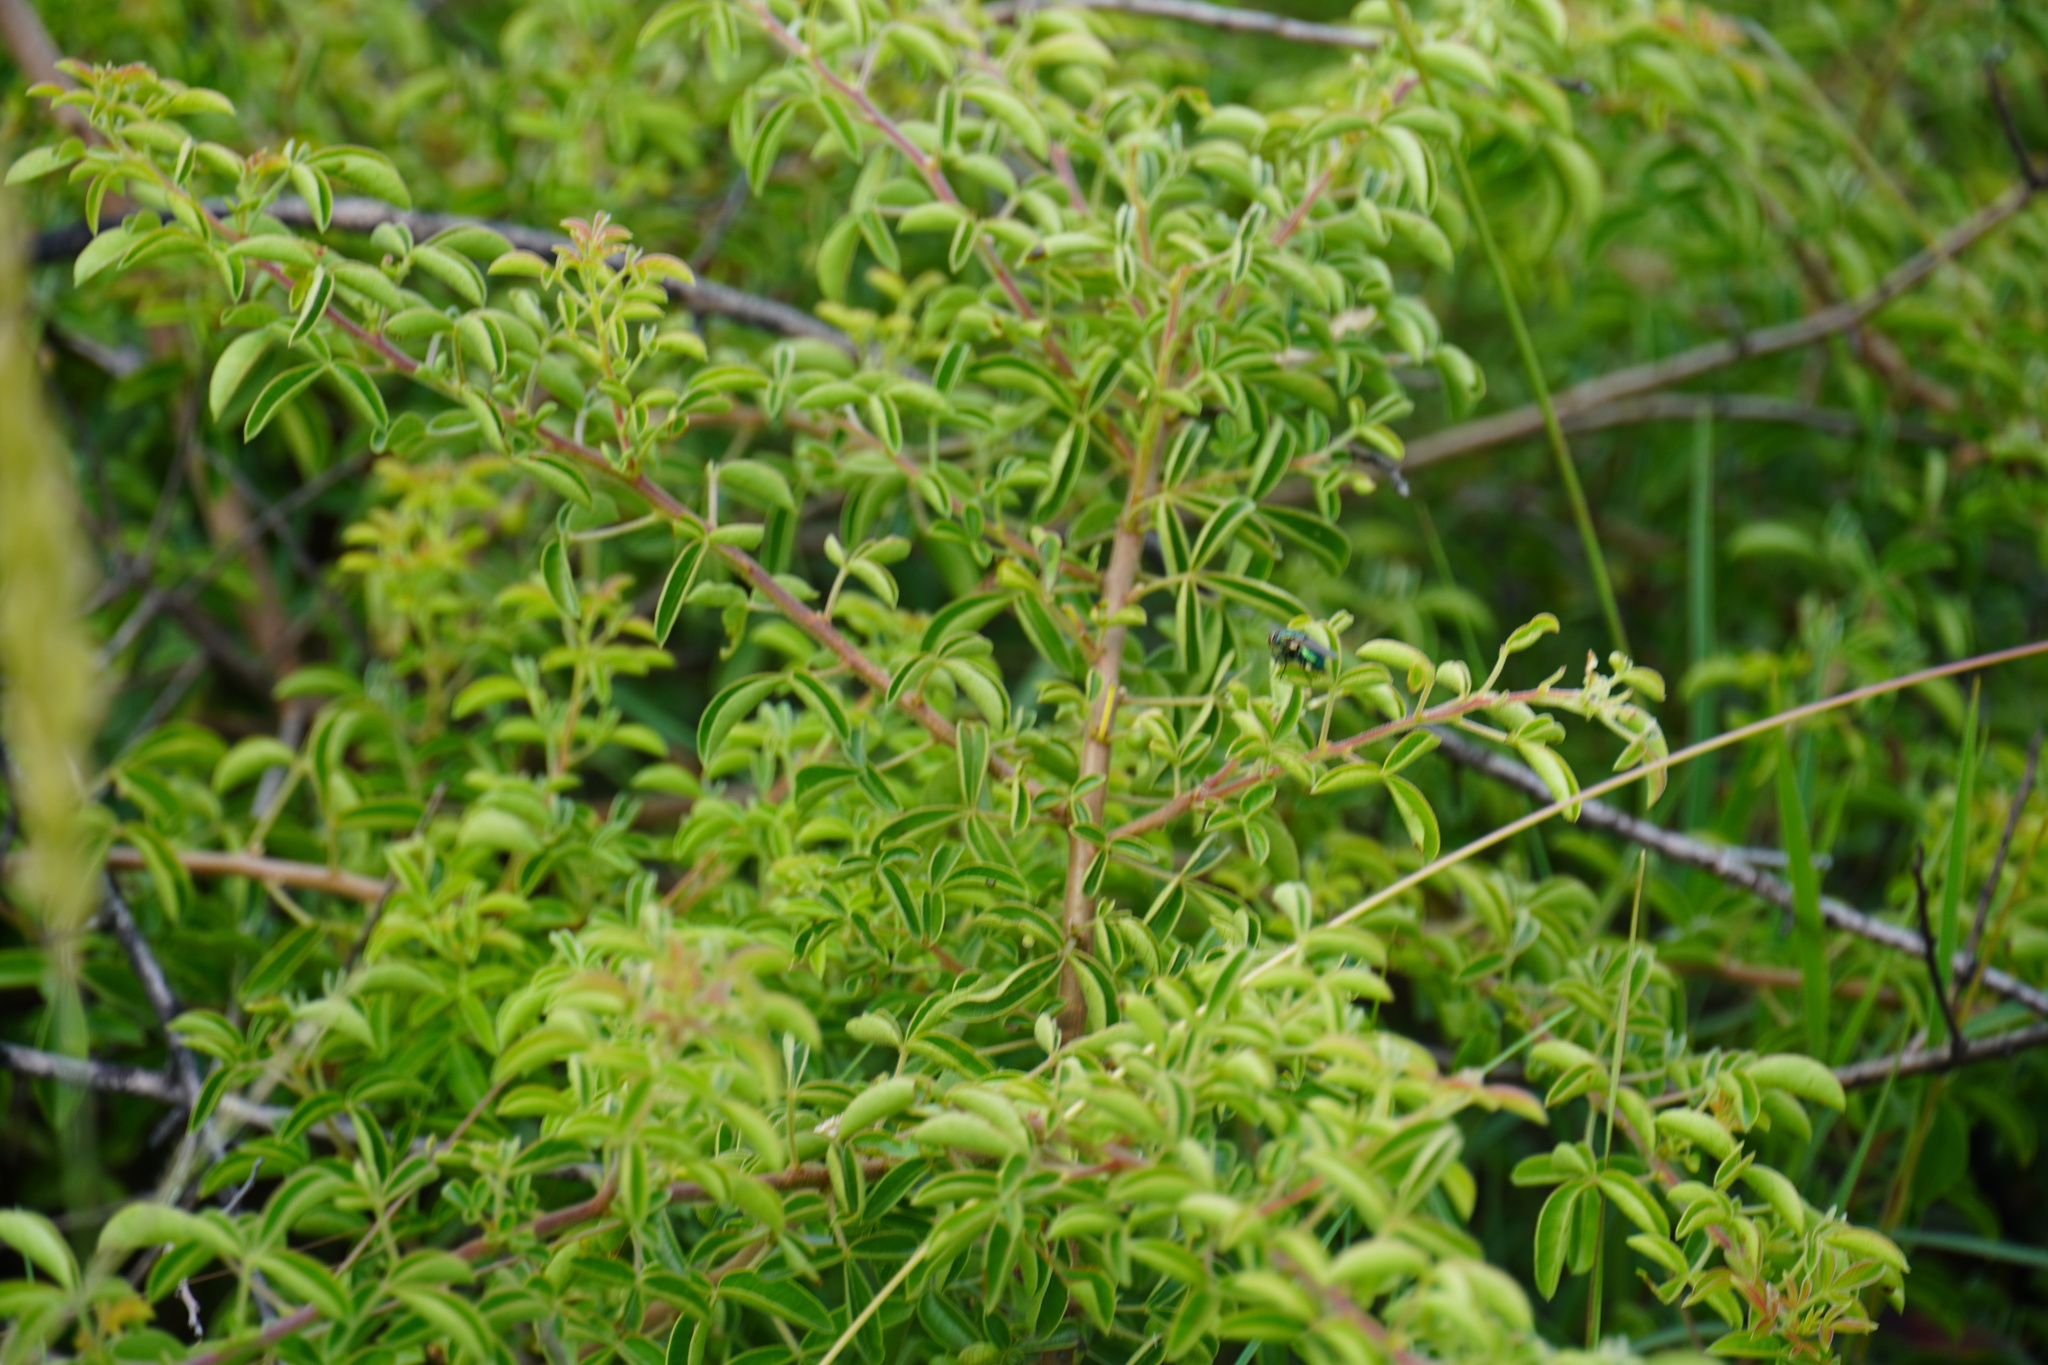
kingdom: Plantae
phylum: Tracheophyta
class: Magnoliopsida
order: Sapindales
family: Anacardiaceae
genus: Searsia
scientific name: Searsia rigida
